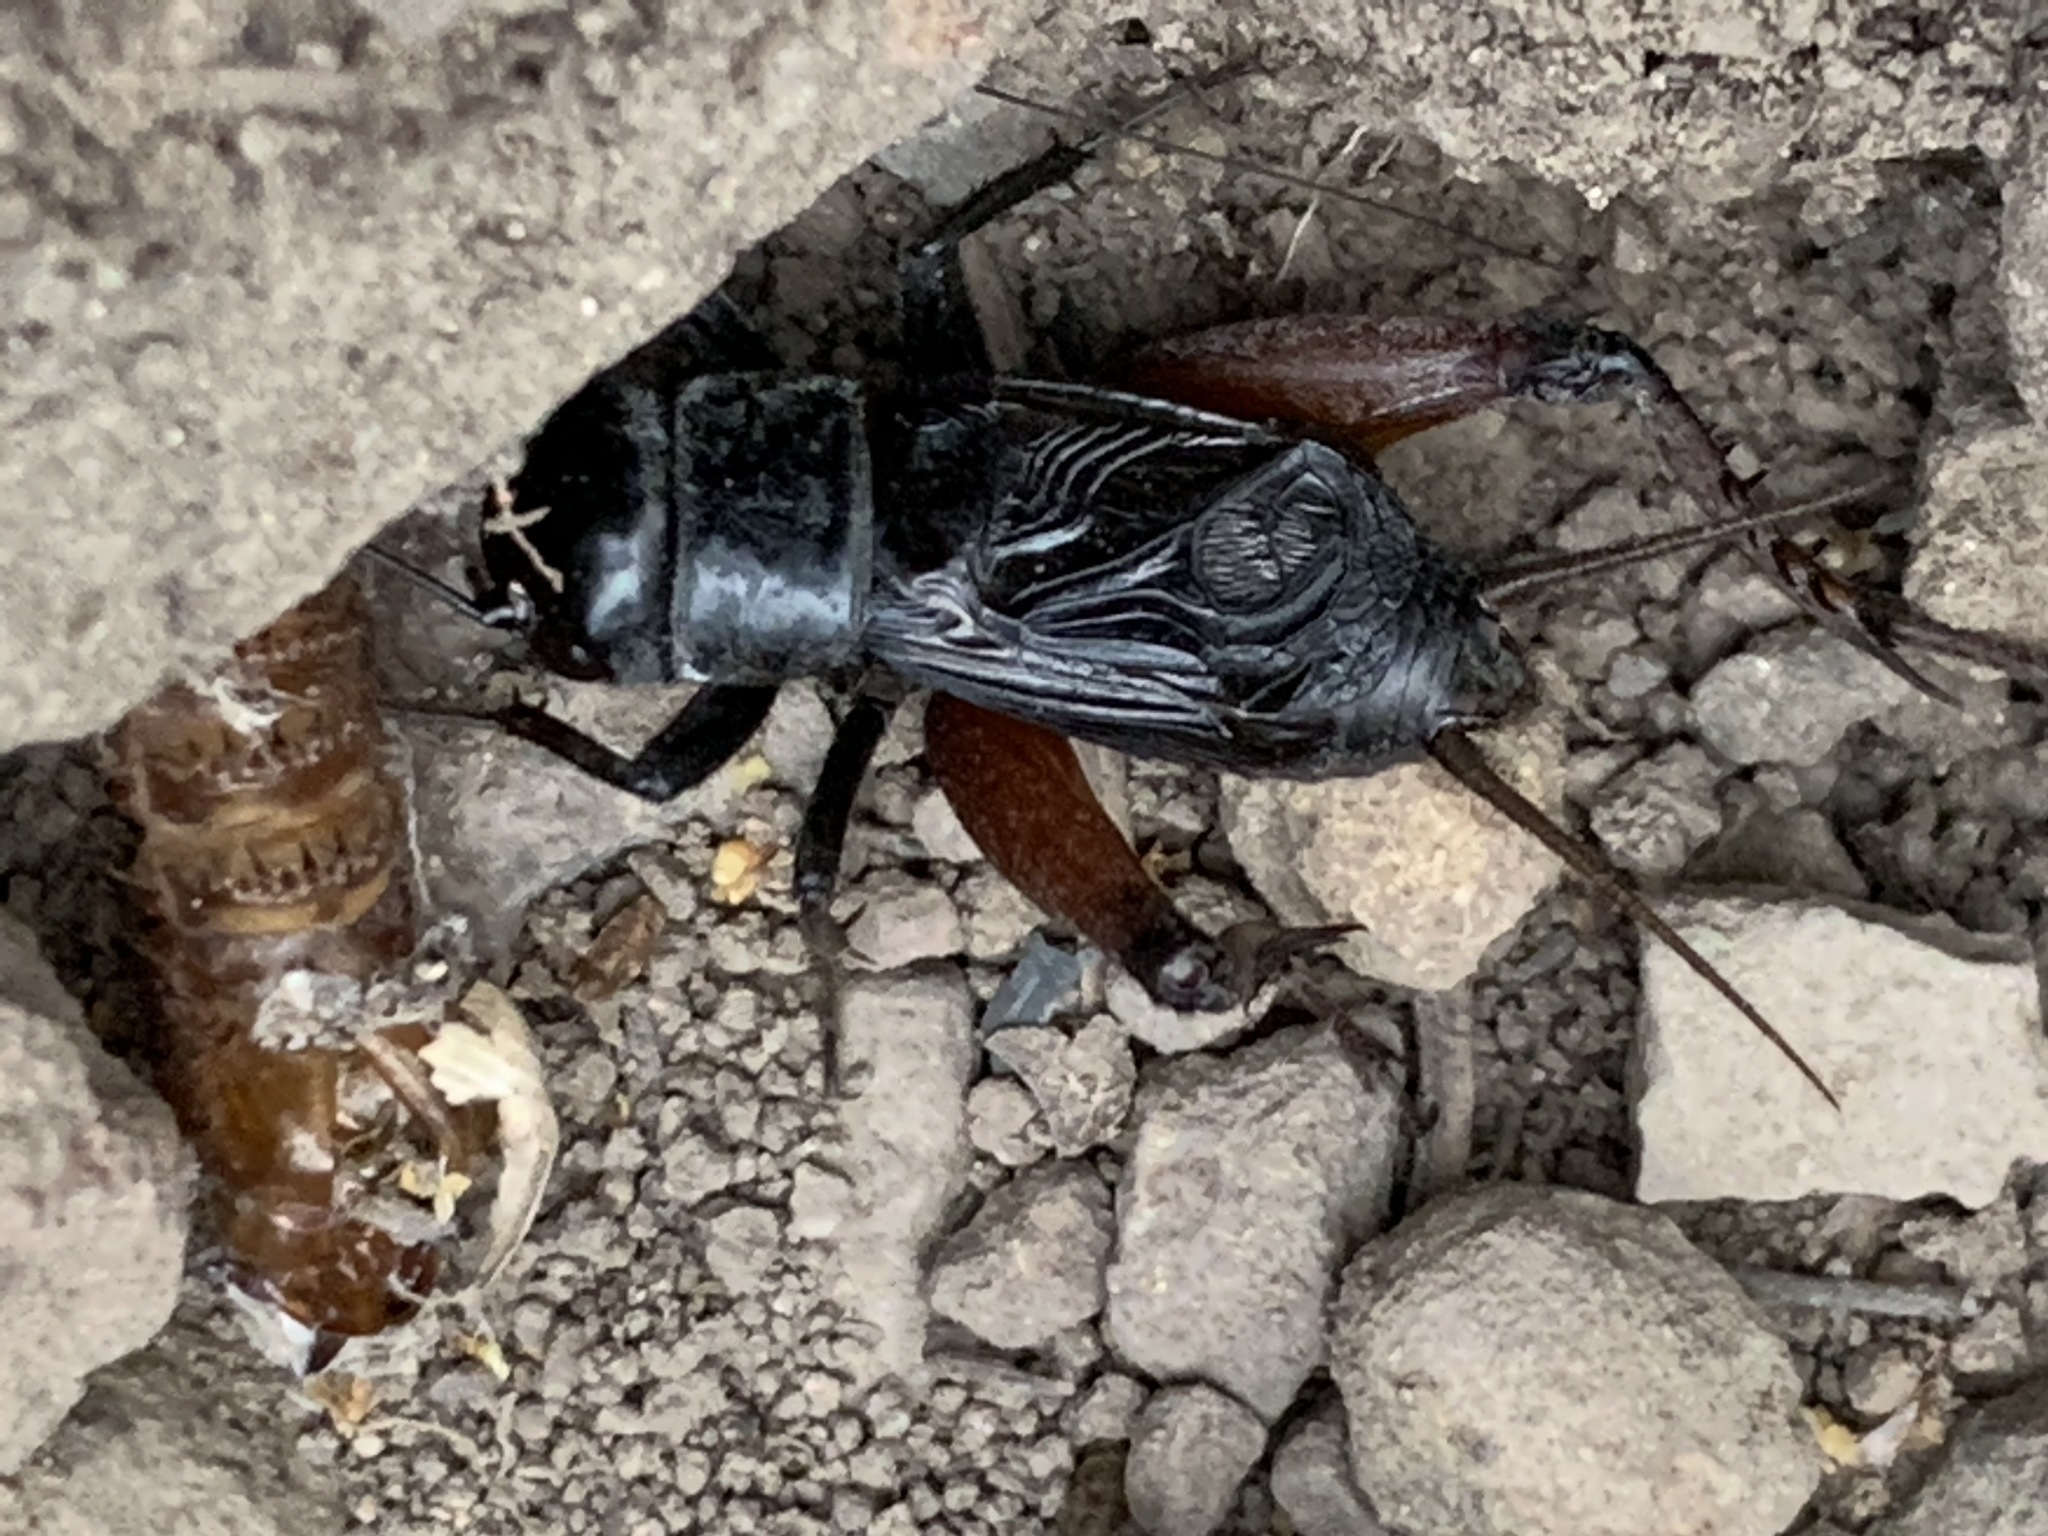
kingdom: Animalia
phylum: Arthropoda
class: Insecta
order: Orthoptera
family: Gryllidae
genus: Gryllus
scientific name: Gryllus montis
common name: Mountain wood cricket
